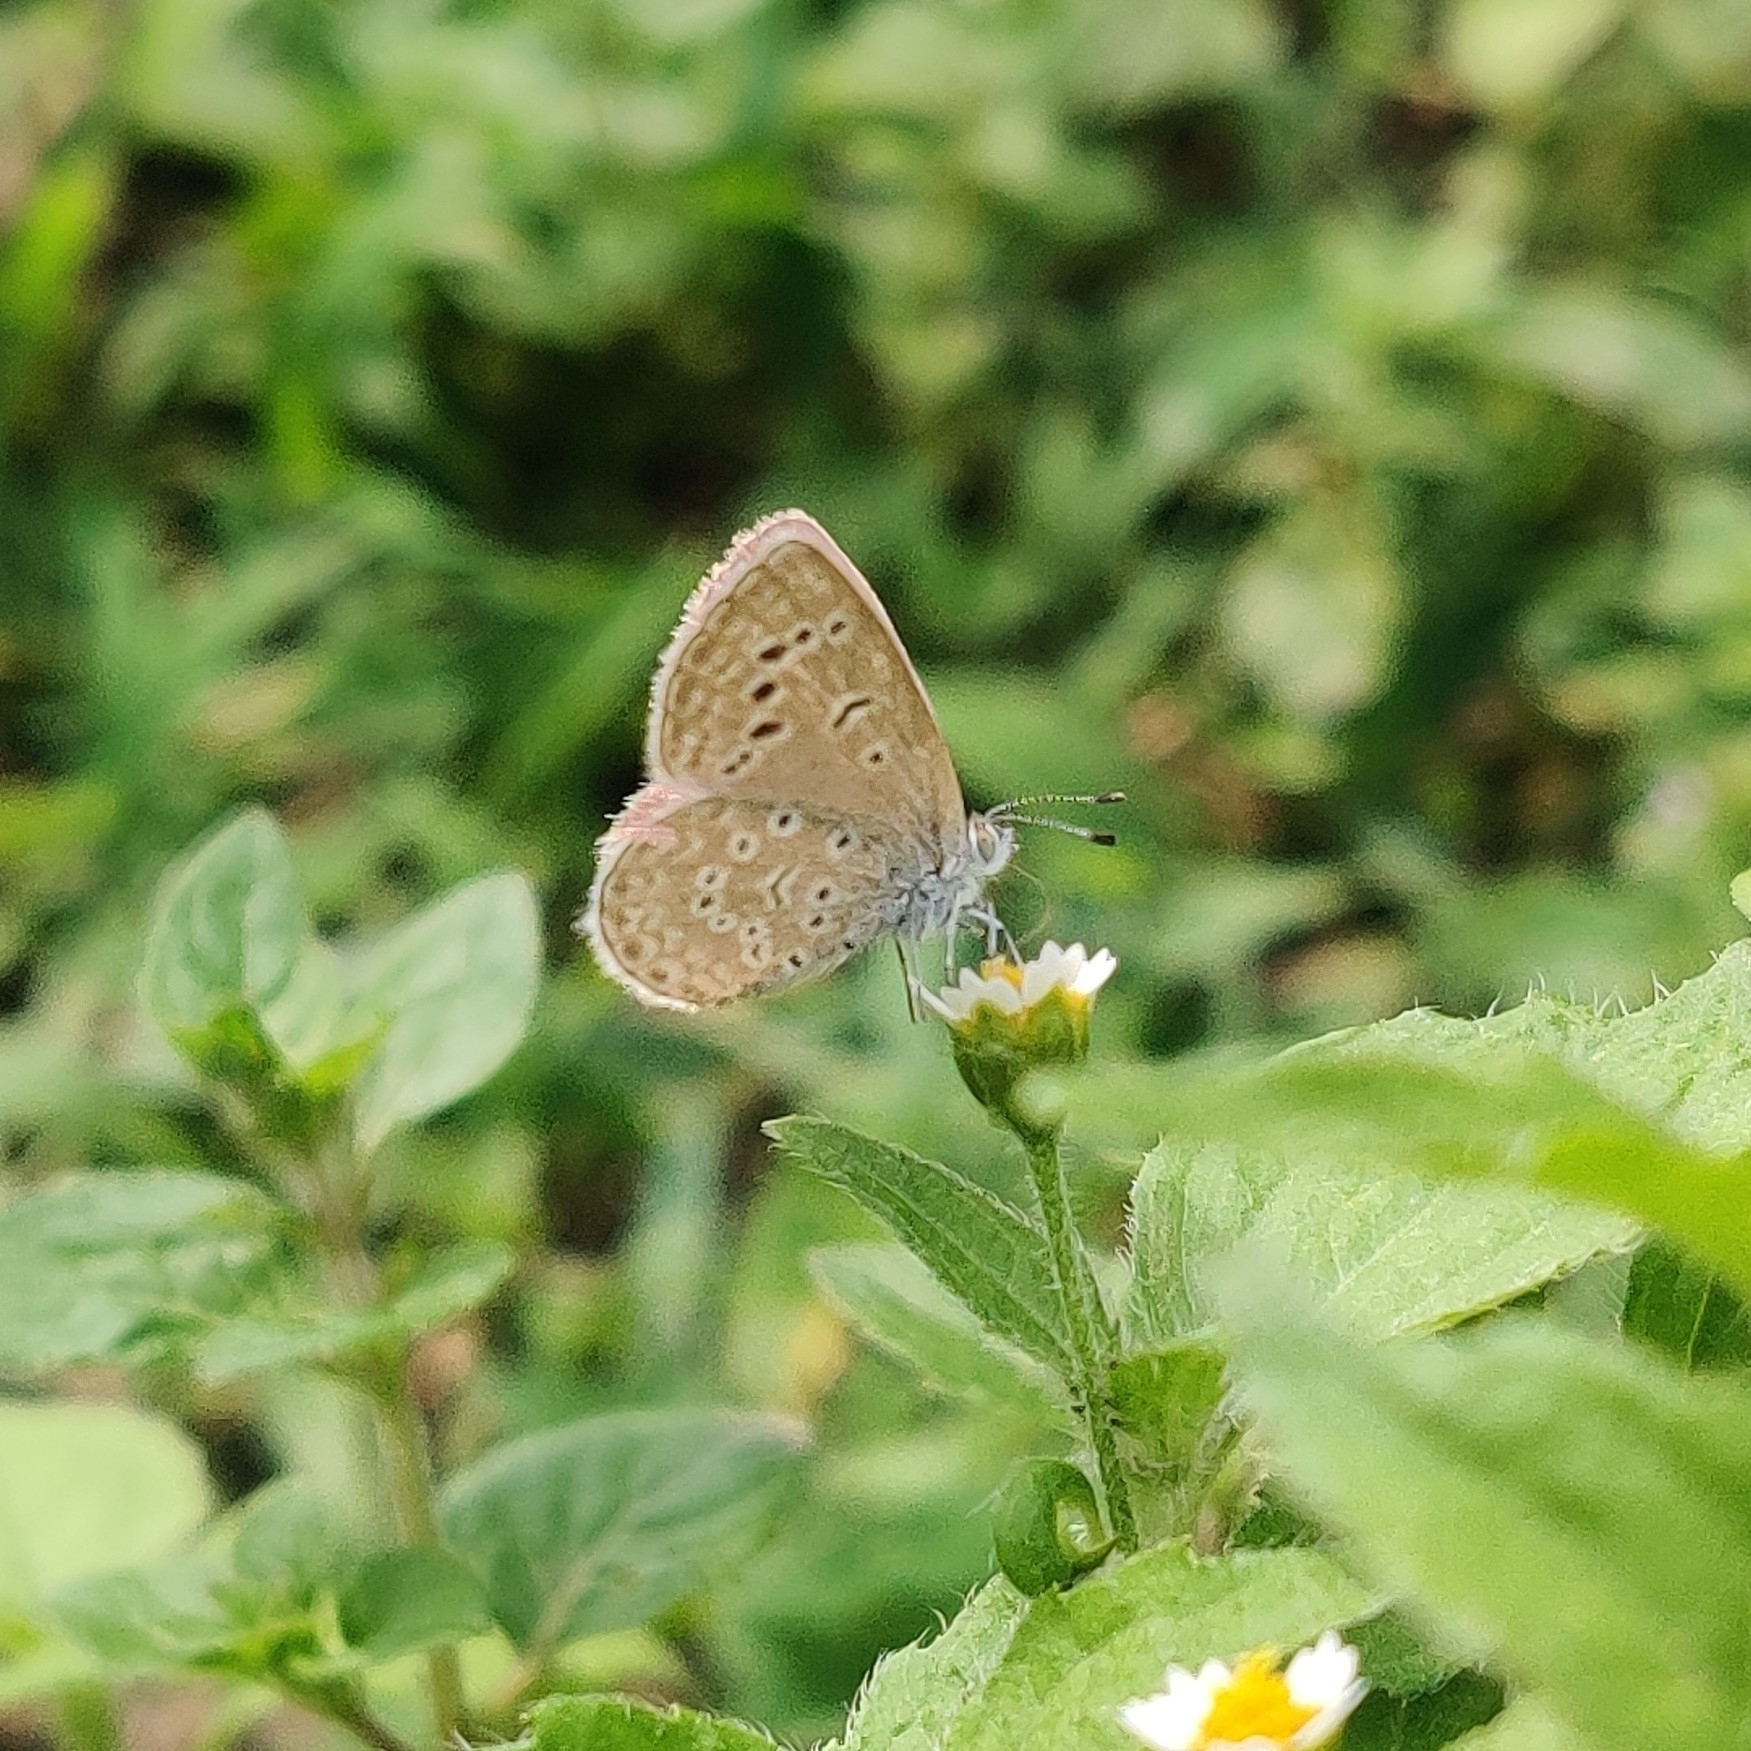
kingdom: Animalia
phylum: Arthropoda
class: Insecta
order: Lepidoptera
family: Lycaenidae
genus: Zizeeria
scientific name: Zizeeria karsandra
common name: Dark grass blue
